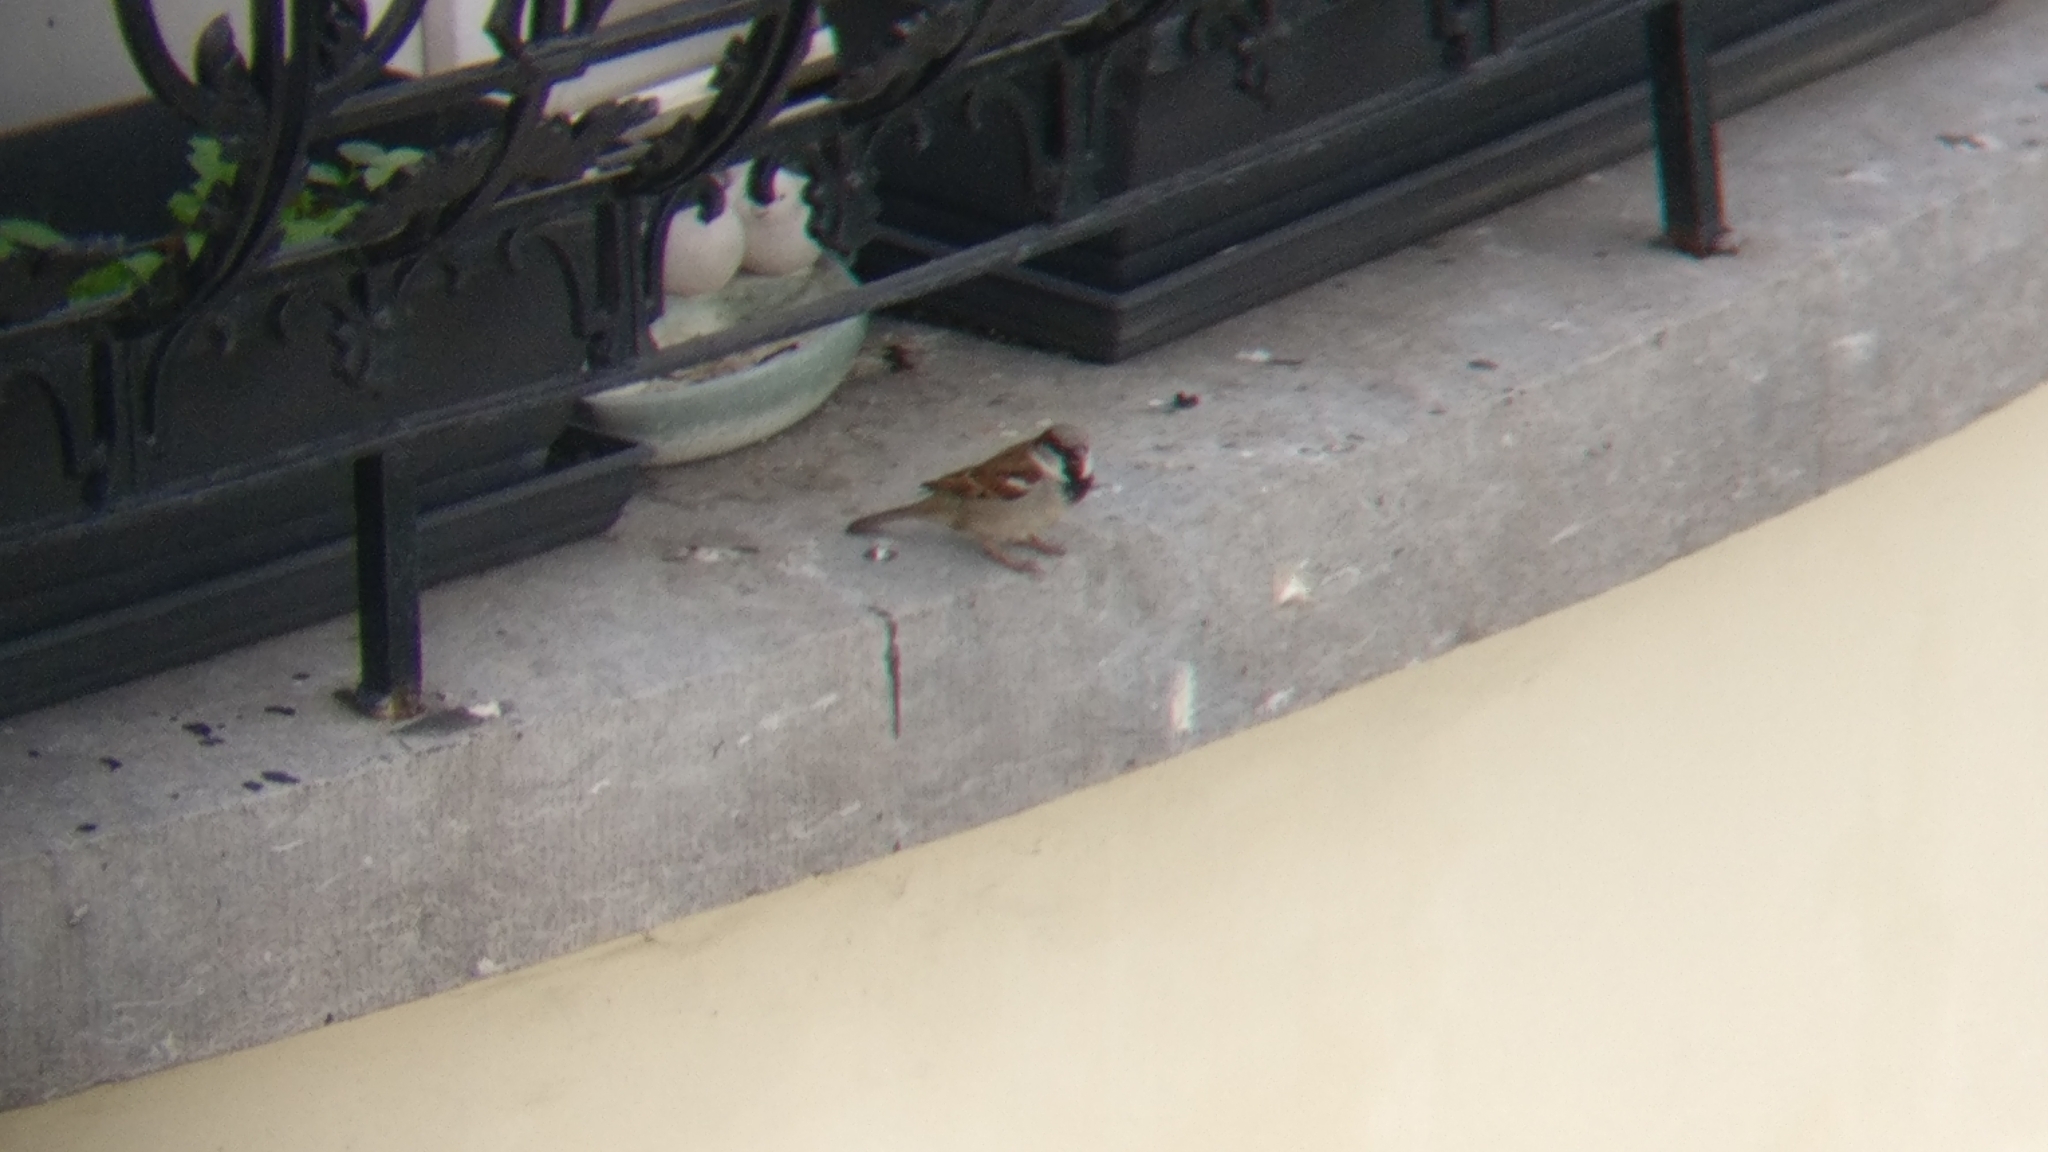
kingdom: Animalia
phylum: Chordata
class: Aves
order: Passeriformes
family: Passeridae
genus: Passer
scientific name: Passer domesticus
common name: House sparrow
